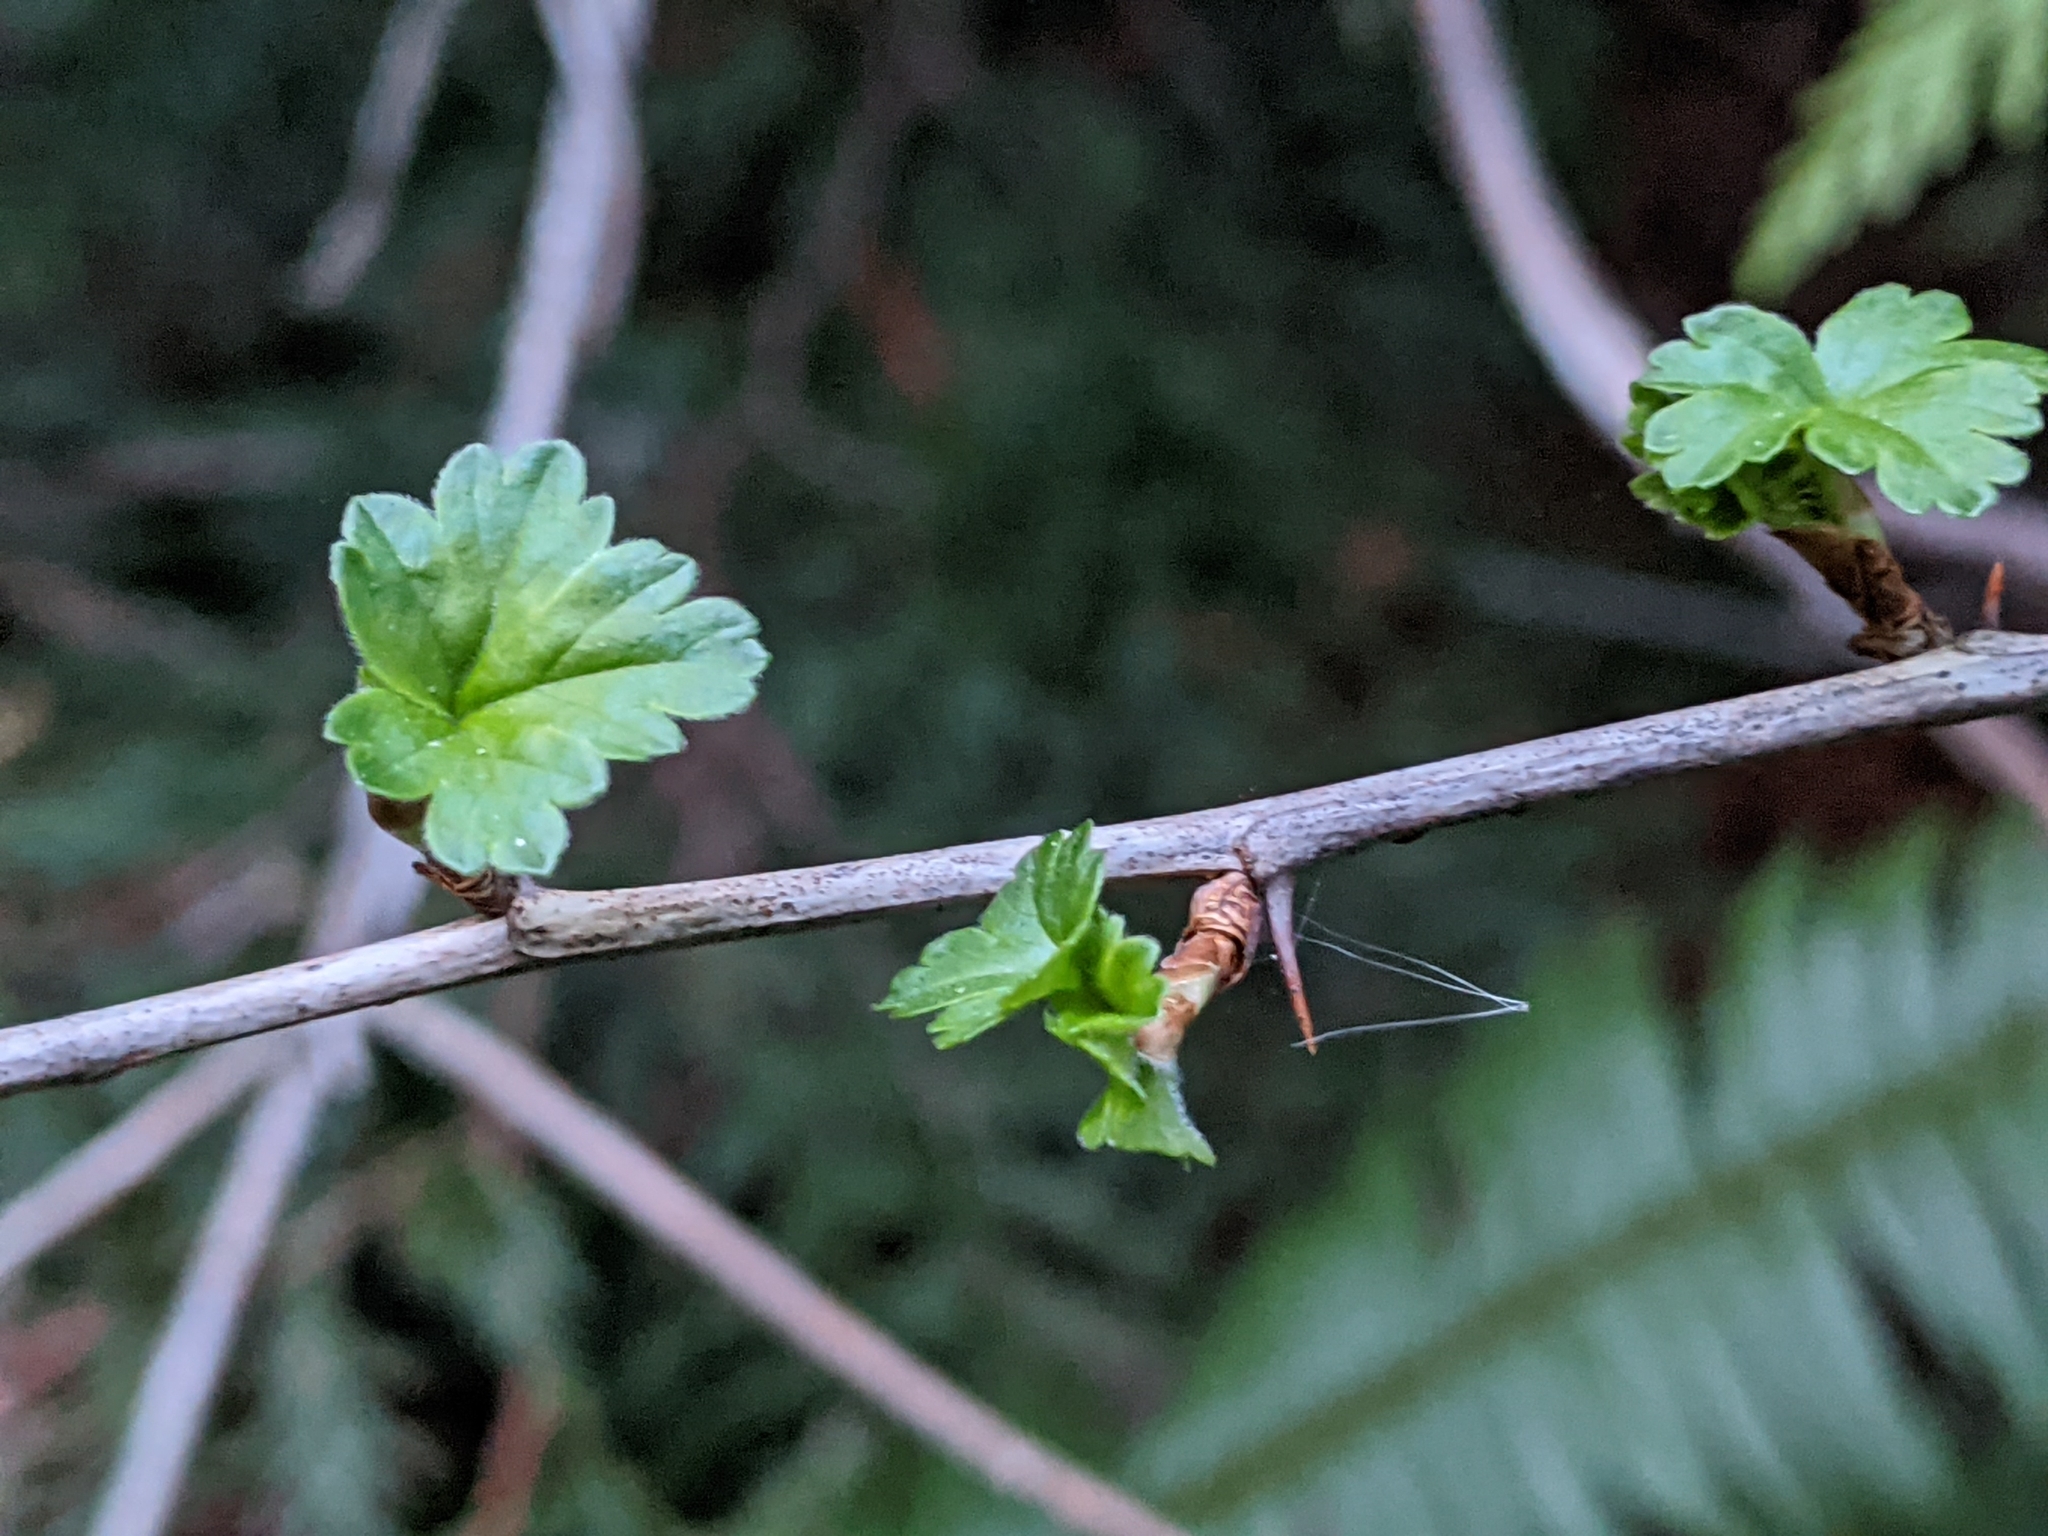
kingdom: Plantae
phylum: Tracheophyta
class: Magnoliopsida
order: Saxifragales
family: Grossulariaceae
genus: Ribes
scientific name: Ribes divaricatum
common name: Wild black gooseberry
